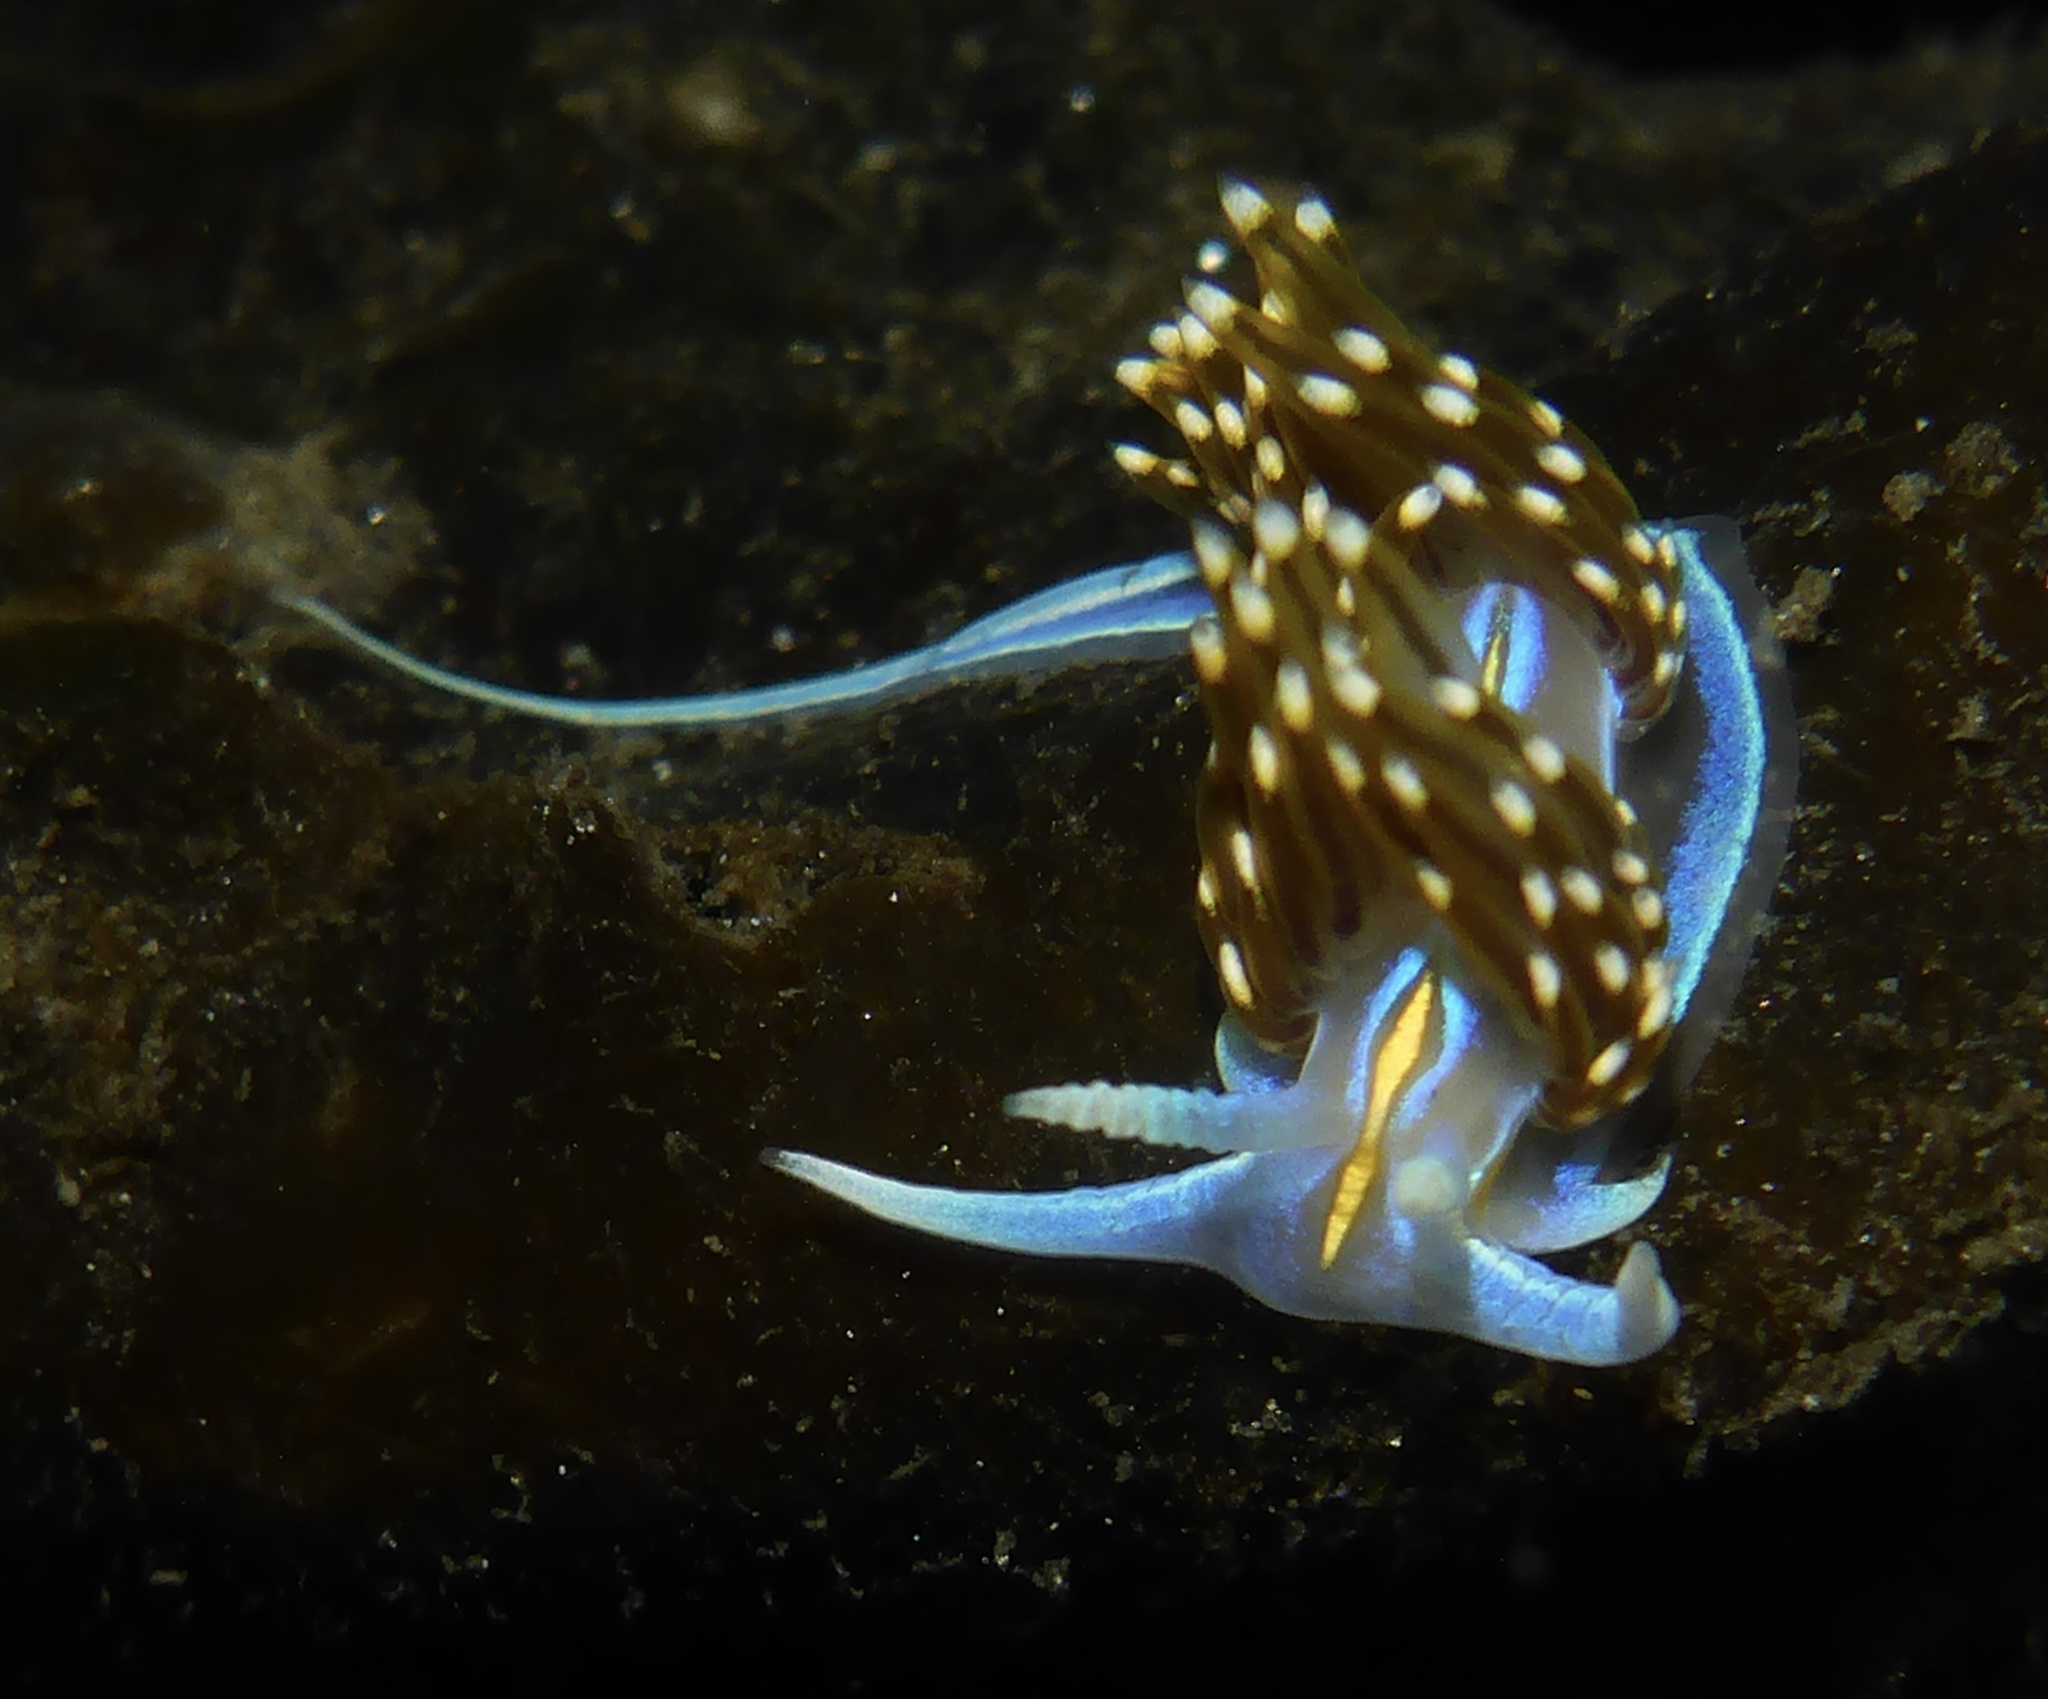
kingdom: Animalia
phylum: Mollusca
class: Gastropoda
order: Nudibranchia
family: Myrrhinidae
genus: Hermissenda
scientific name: Hermissenda opalescens
